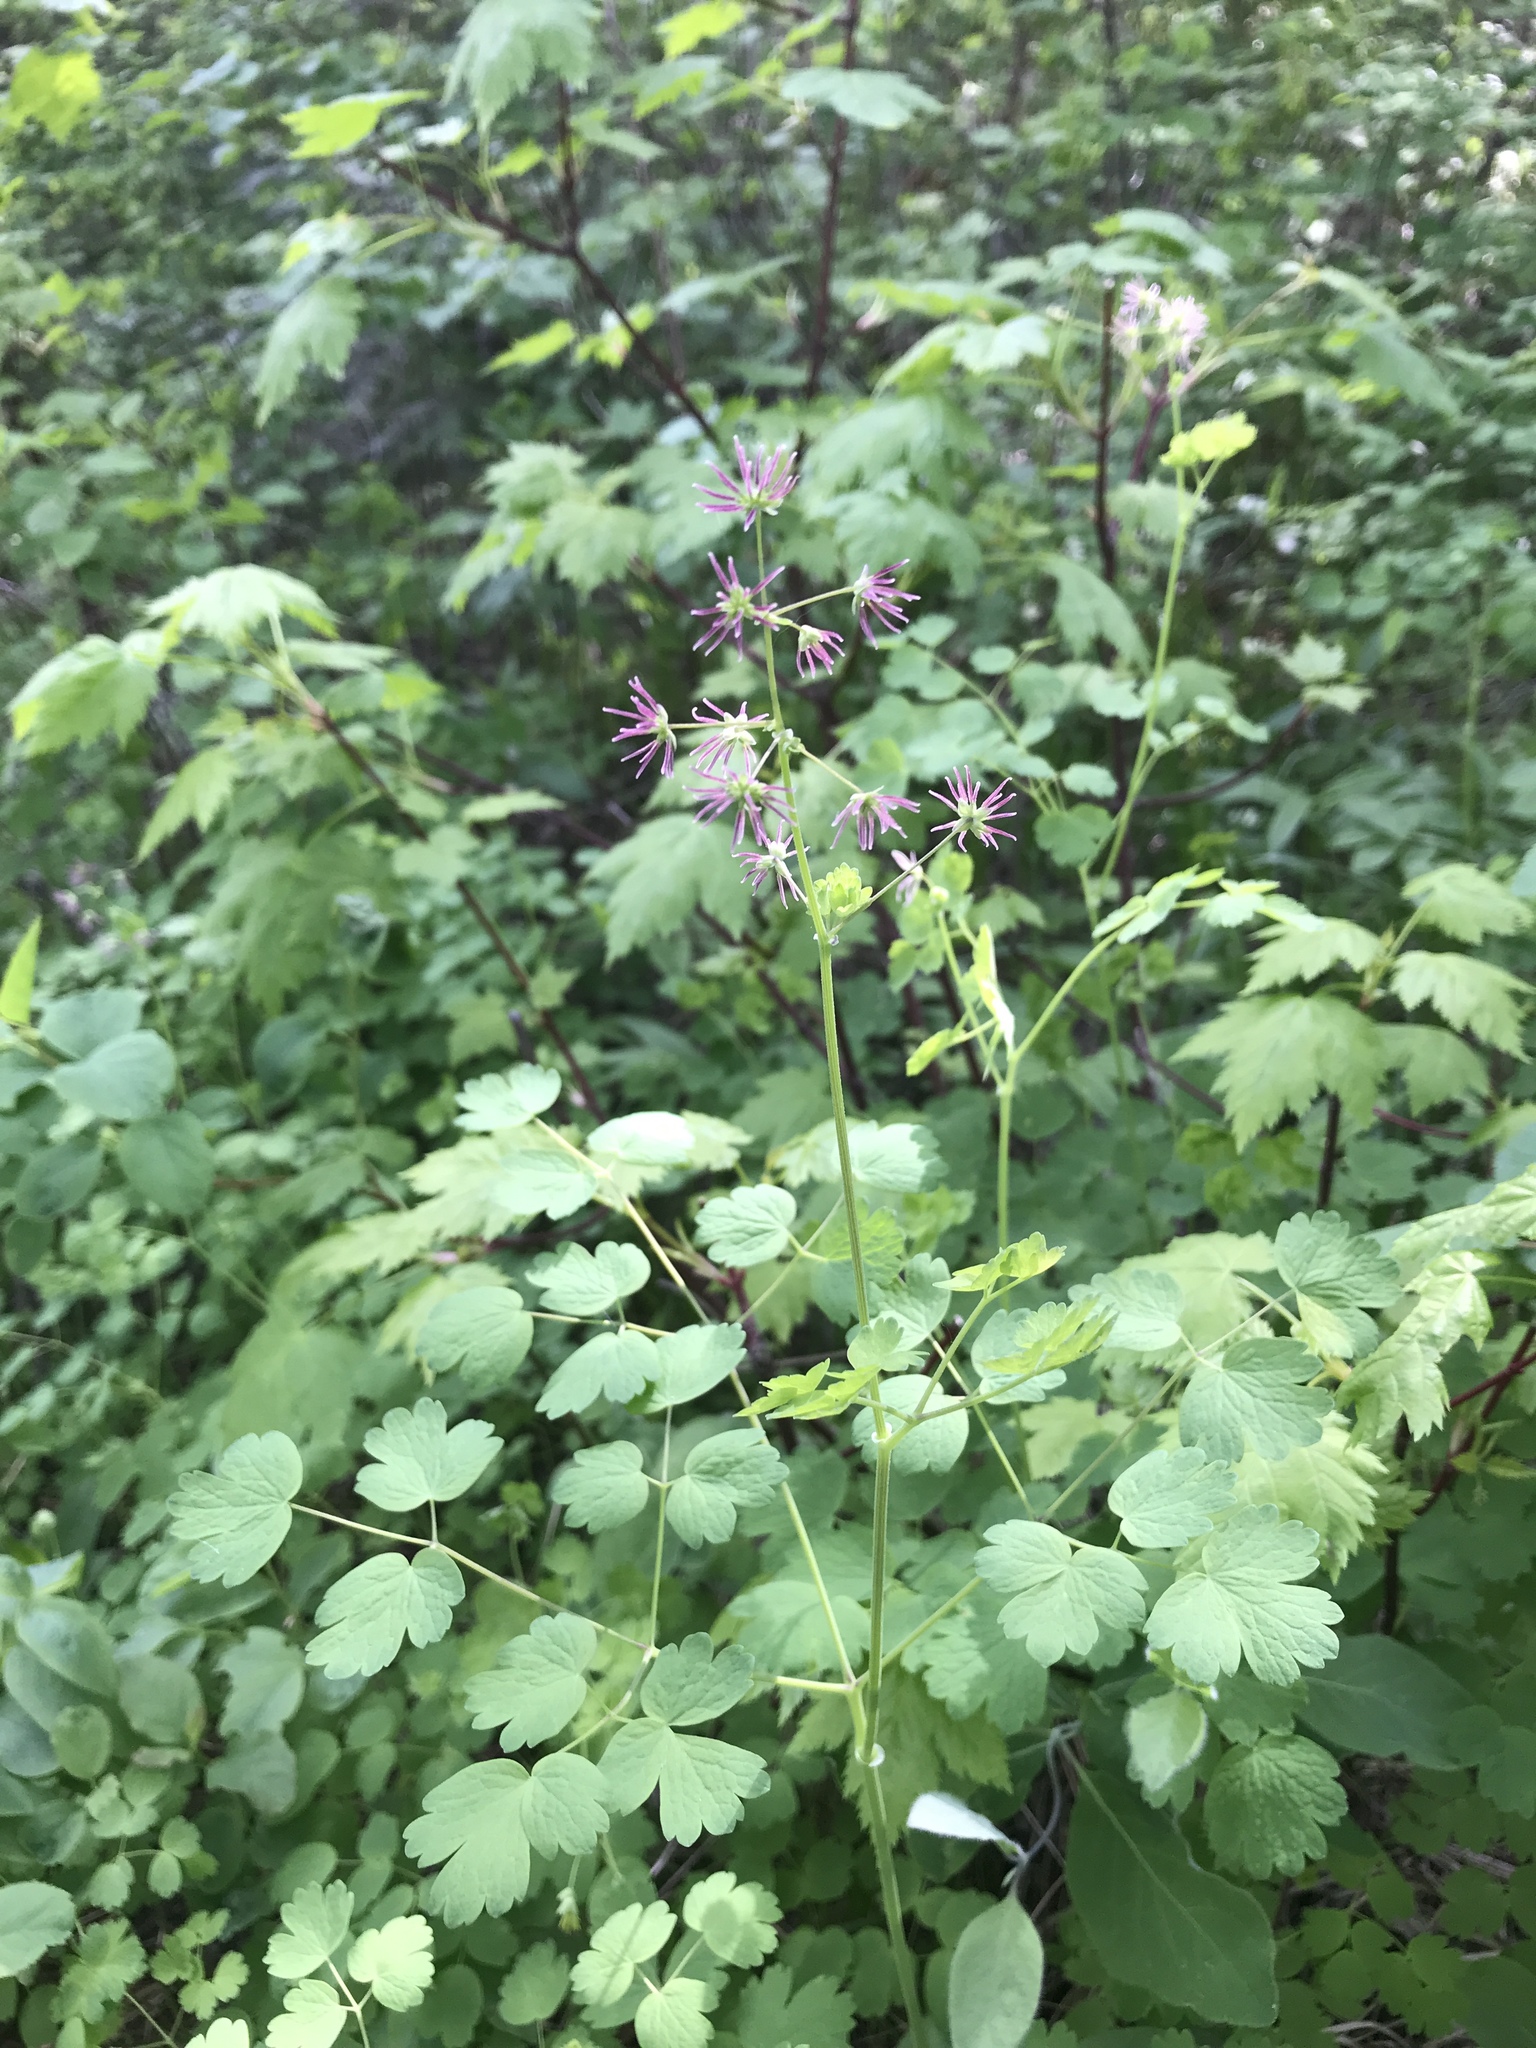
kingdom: Plantae
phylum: Tracheophyta
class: Magnoliopsida
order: Ranunculales
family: Ranunculaceae
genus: Thalictrum
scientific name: Thalictrum occidentale
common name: Western meadow-rue
